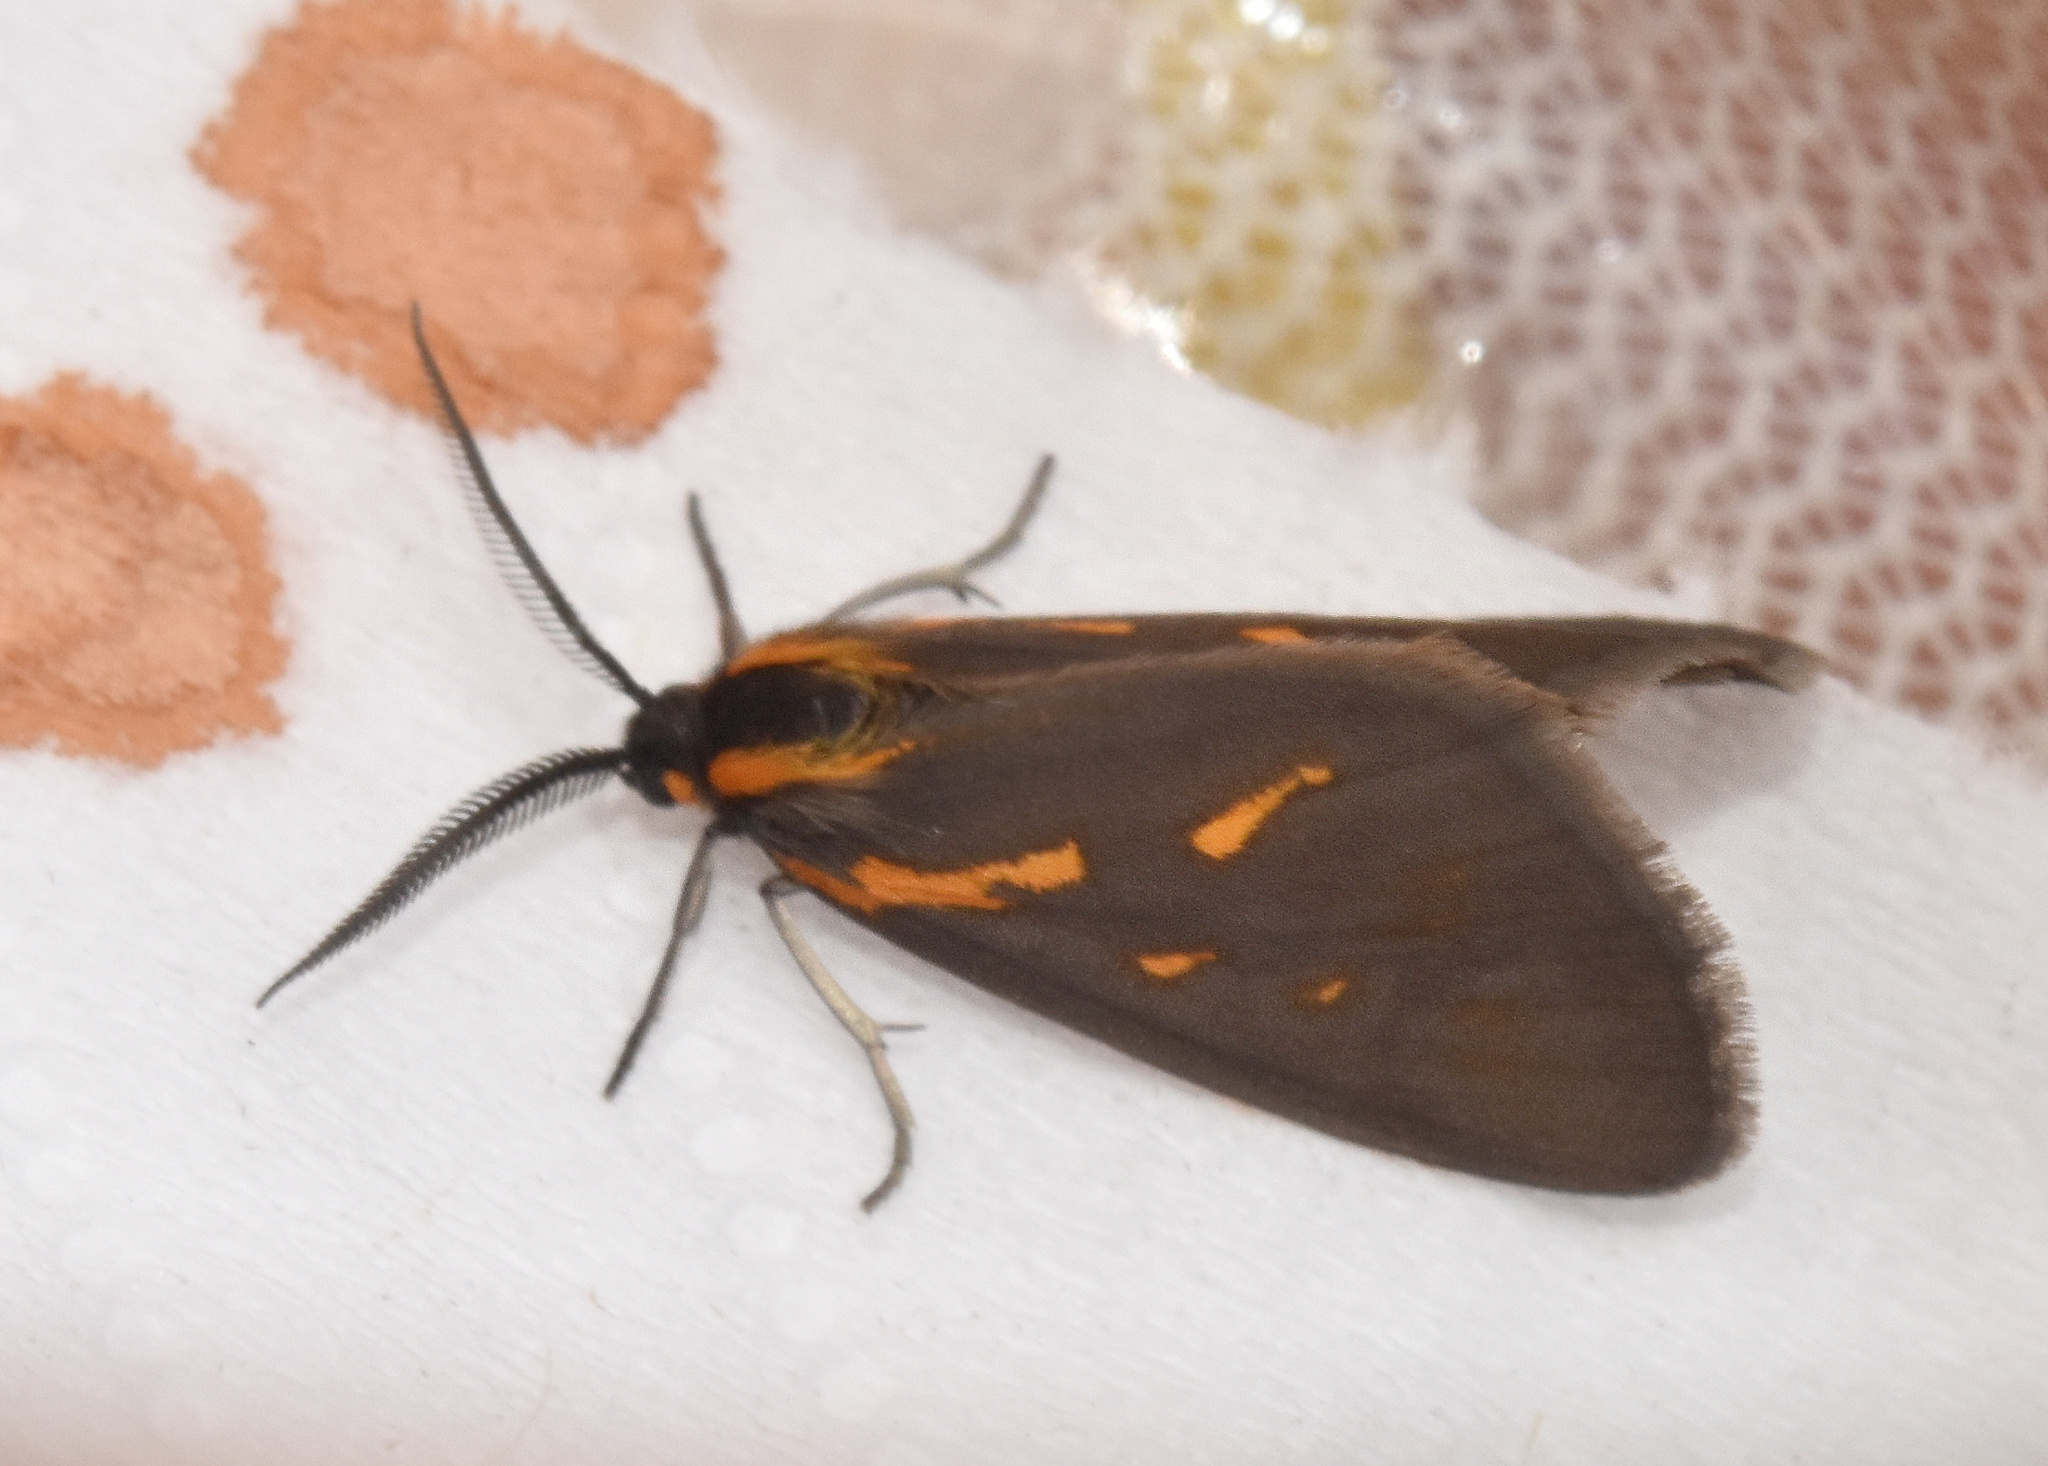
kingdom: Animalia
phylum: Arthropoda
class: Insecta
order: Lepidoptera
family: Geometridae
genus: Durbana
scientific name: Durbana setinata
